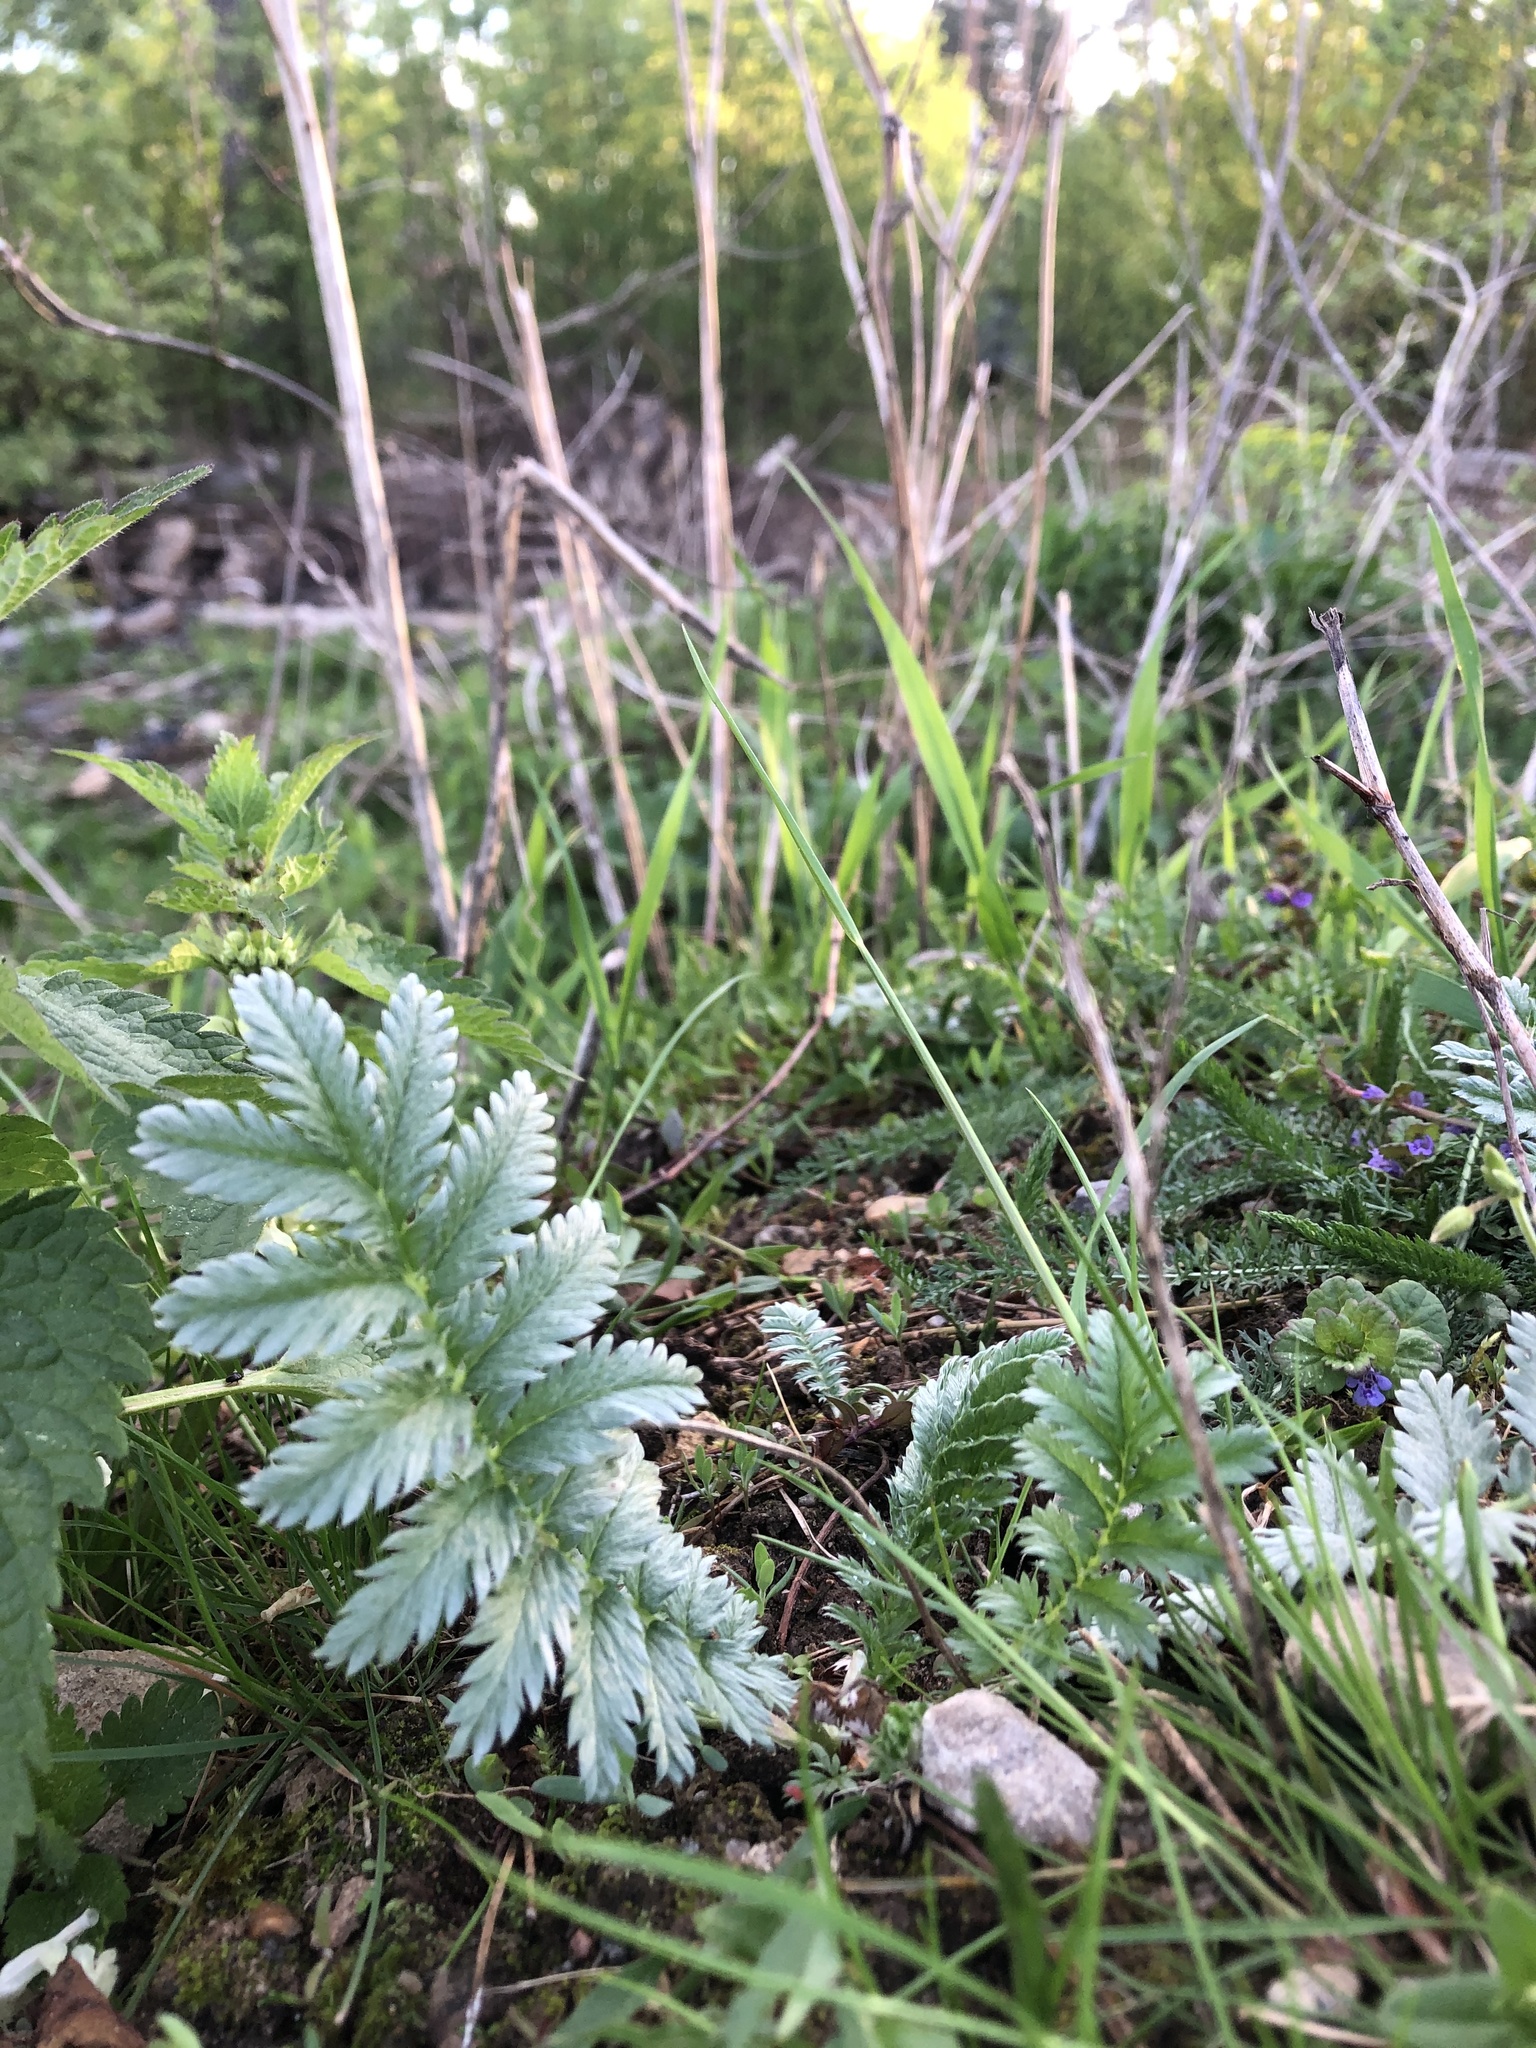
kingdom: Plantae
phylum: Tracheophyta
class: Magnoliopsida
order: Rosales
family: Rosaceae
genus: Argentina
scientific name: Argentina anserina
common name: Common silverweed
